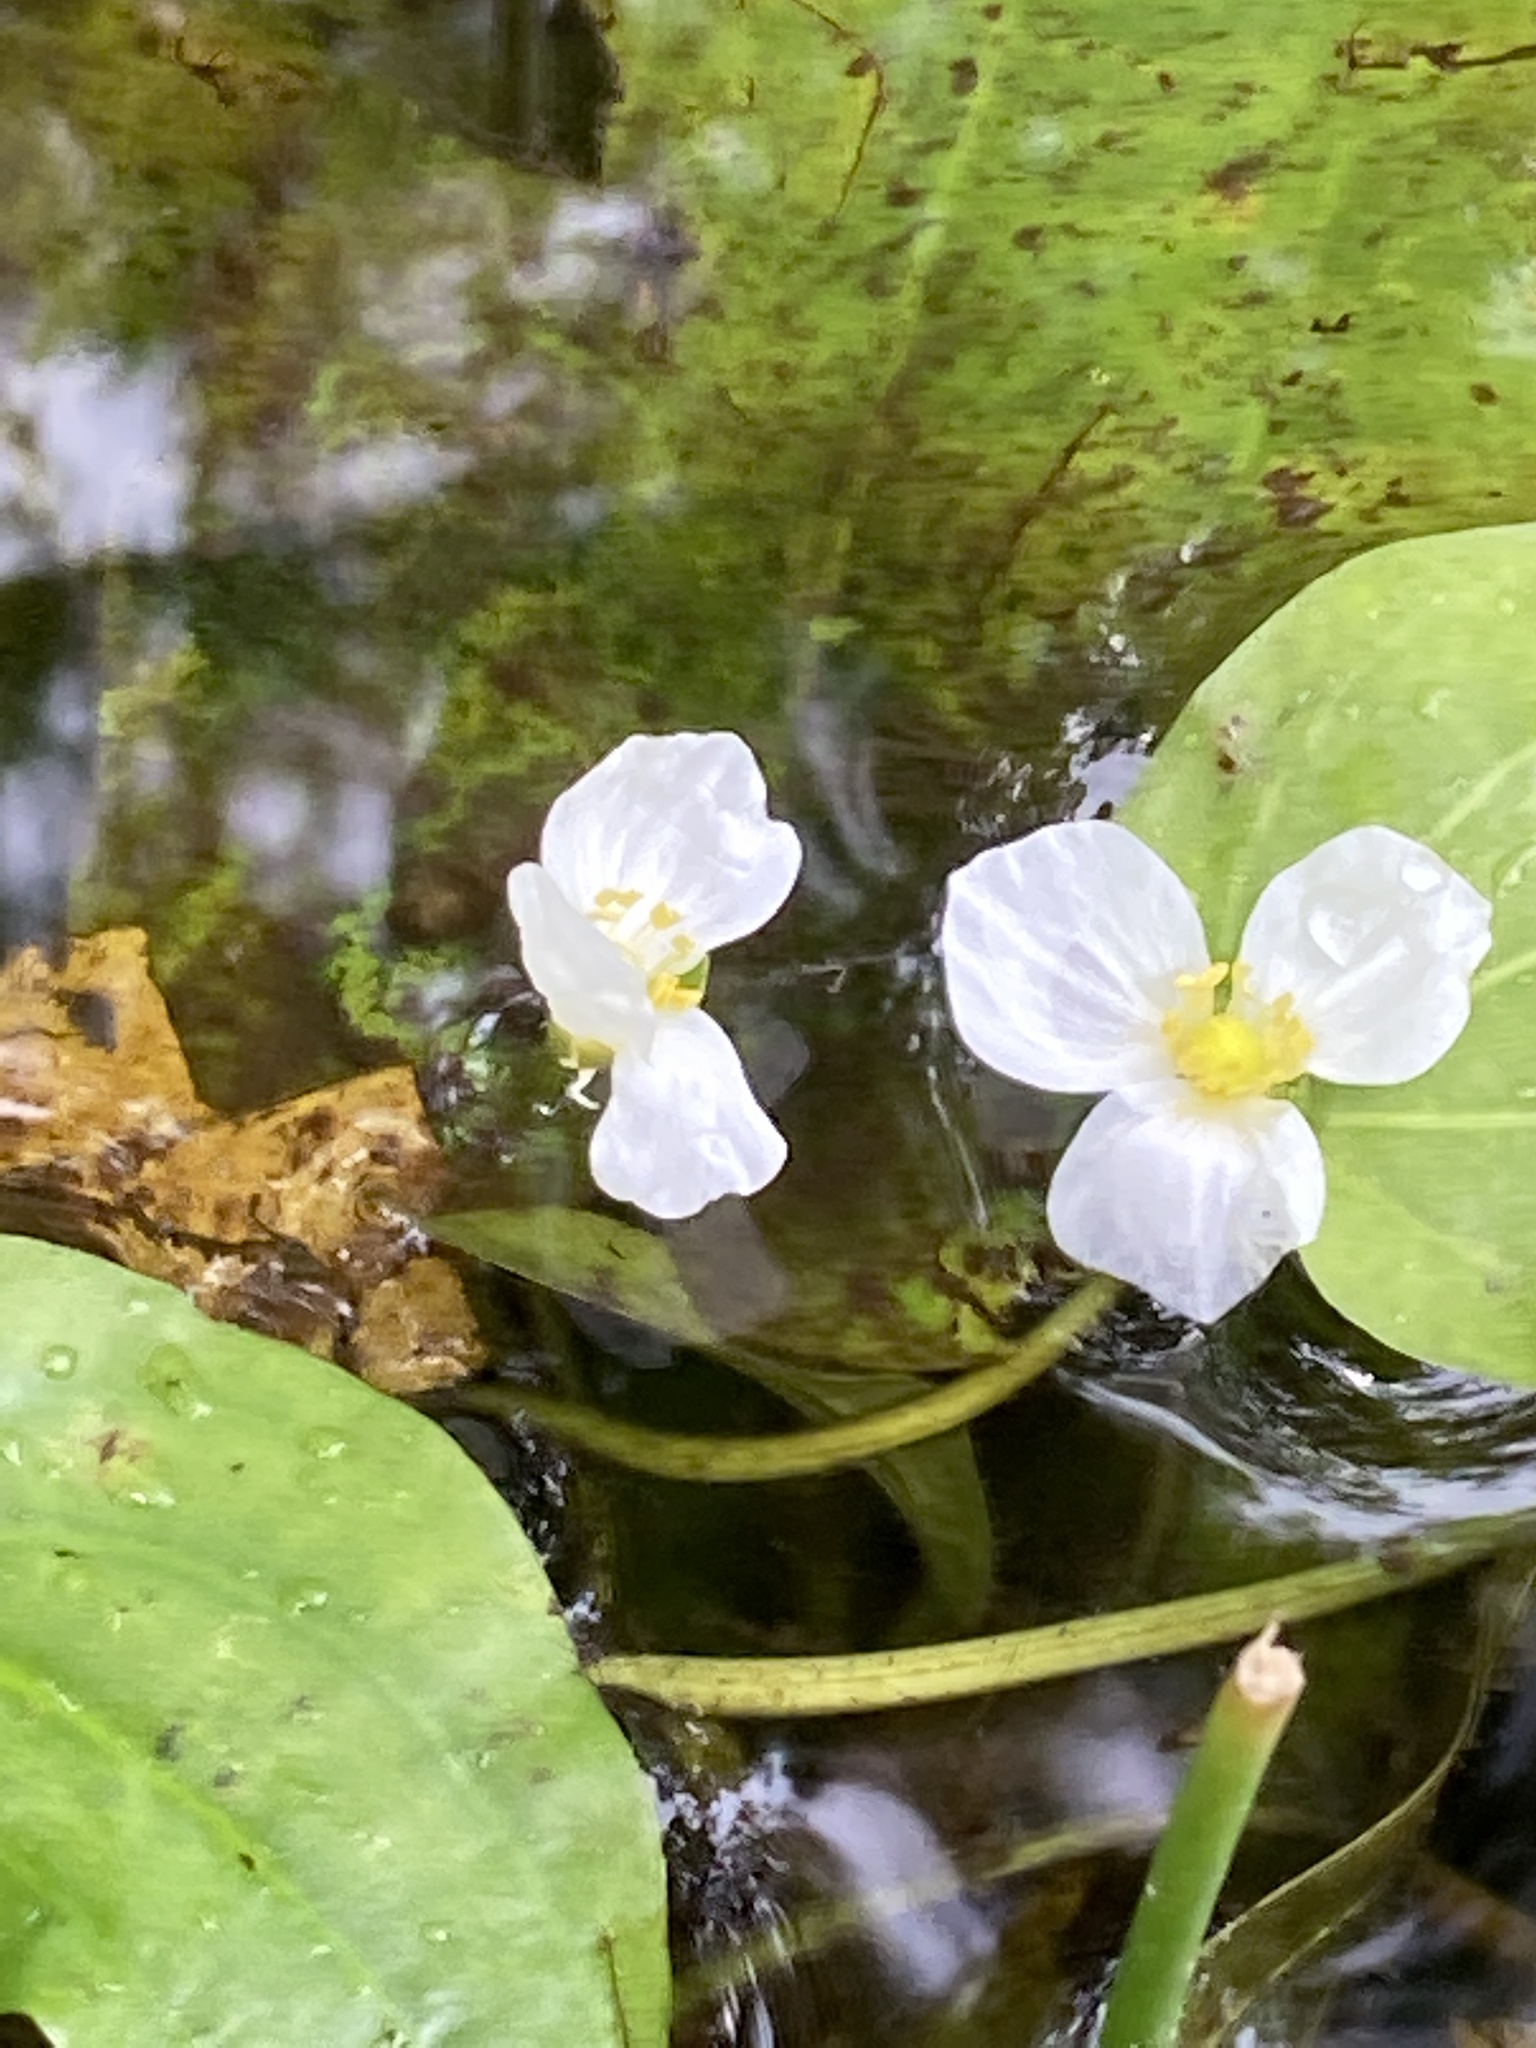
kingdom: Plantae
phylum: Tracheophyta
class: Liliopsida
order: Alismatales
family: Alismataceae
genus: Aquarius
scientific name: Aquarius cordifolius
